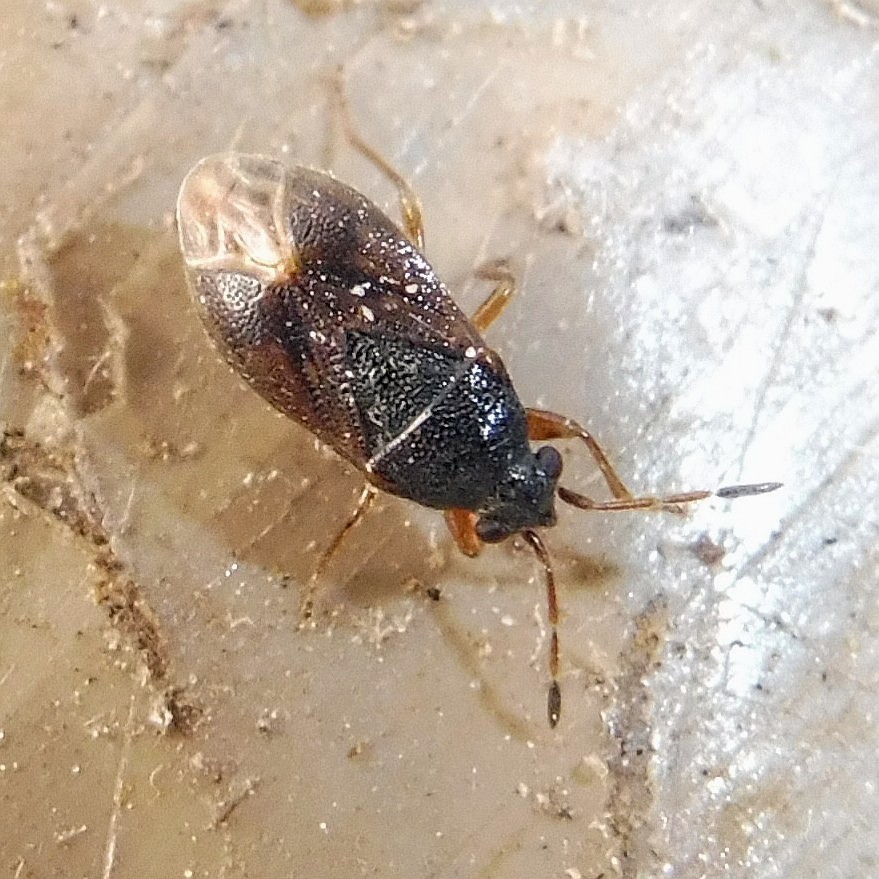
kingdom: Animalia
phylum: Arthropoda
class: Insecta
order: Hemiptera
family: Rhyparochromidae
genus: Stygnocoris
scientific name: Stygnocoris sabulosus
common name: Hairy groundbug
